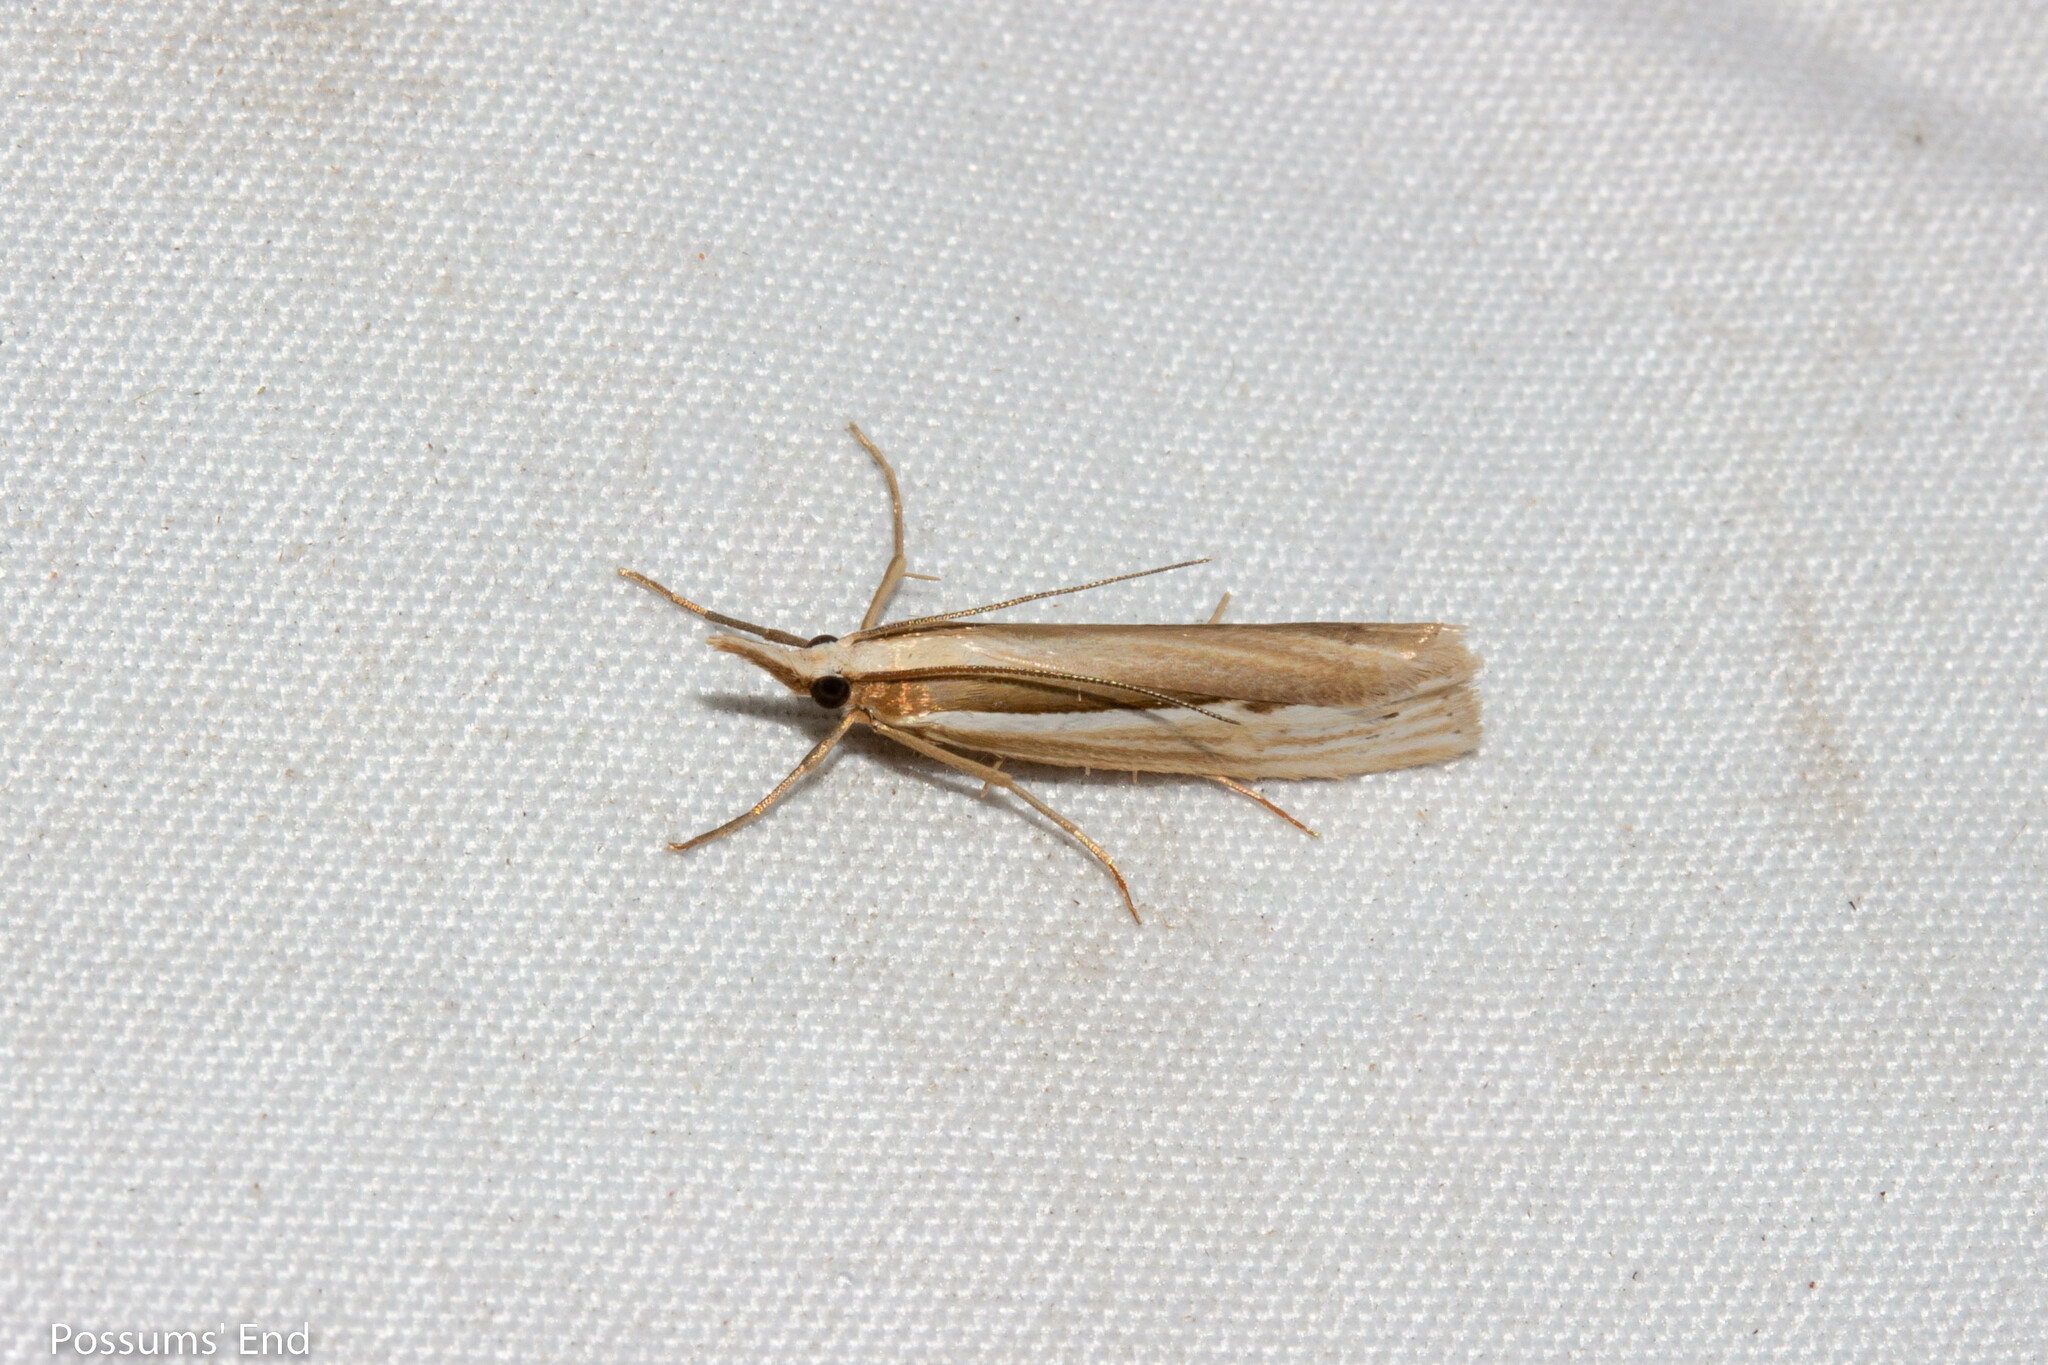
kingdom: Animalia
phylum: Arthropoda
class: Insecta
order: Lepidoptera
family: Crambidae
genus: Orocrambus
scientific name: Orocrambus ramosellus
